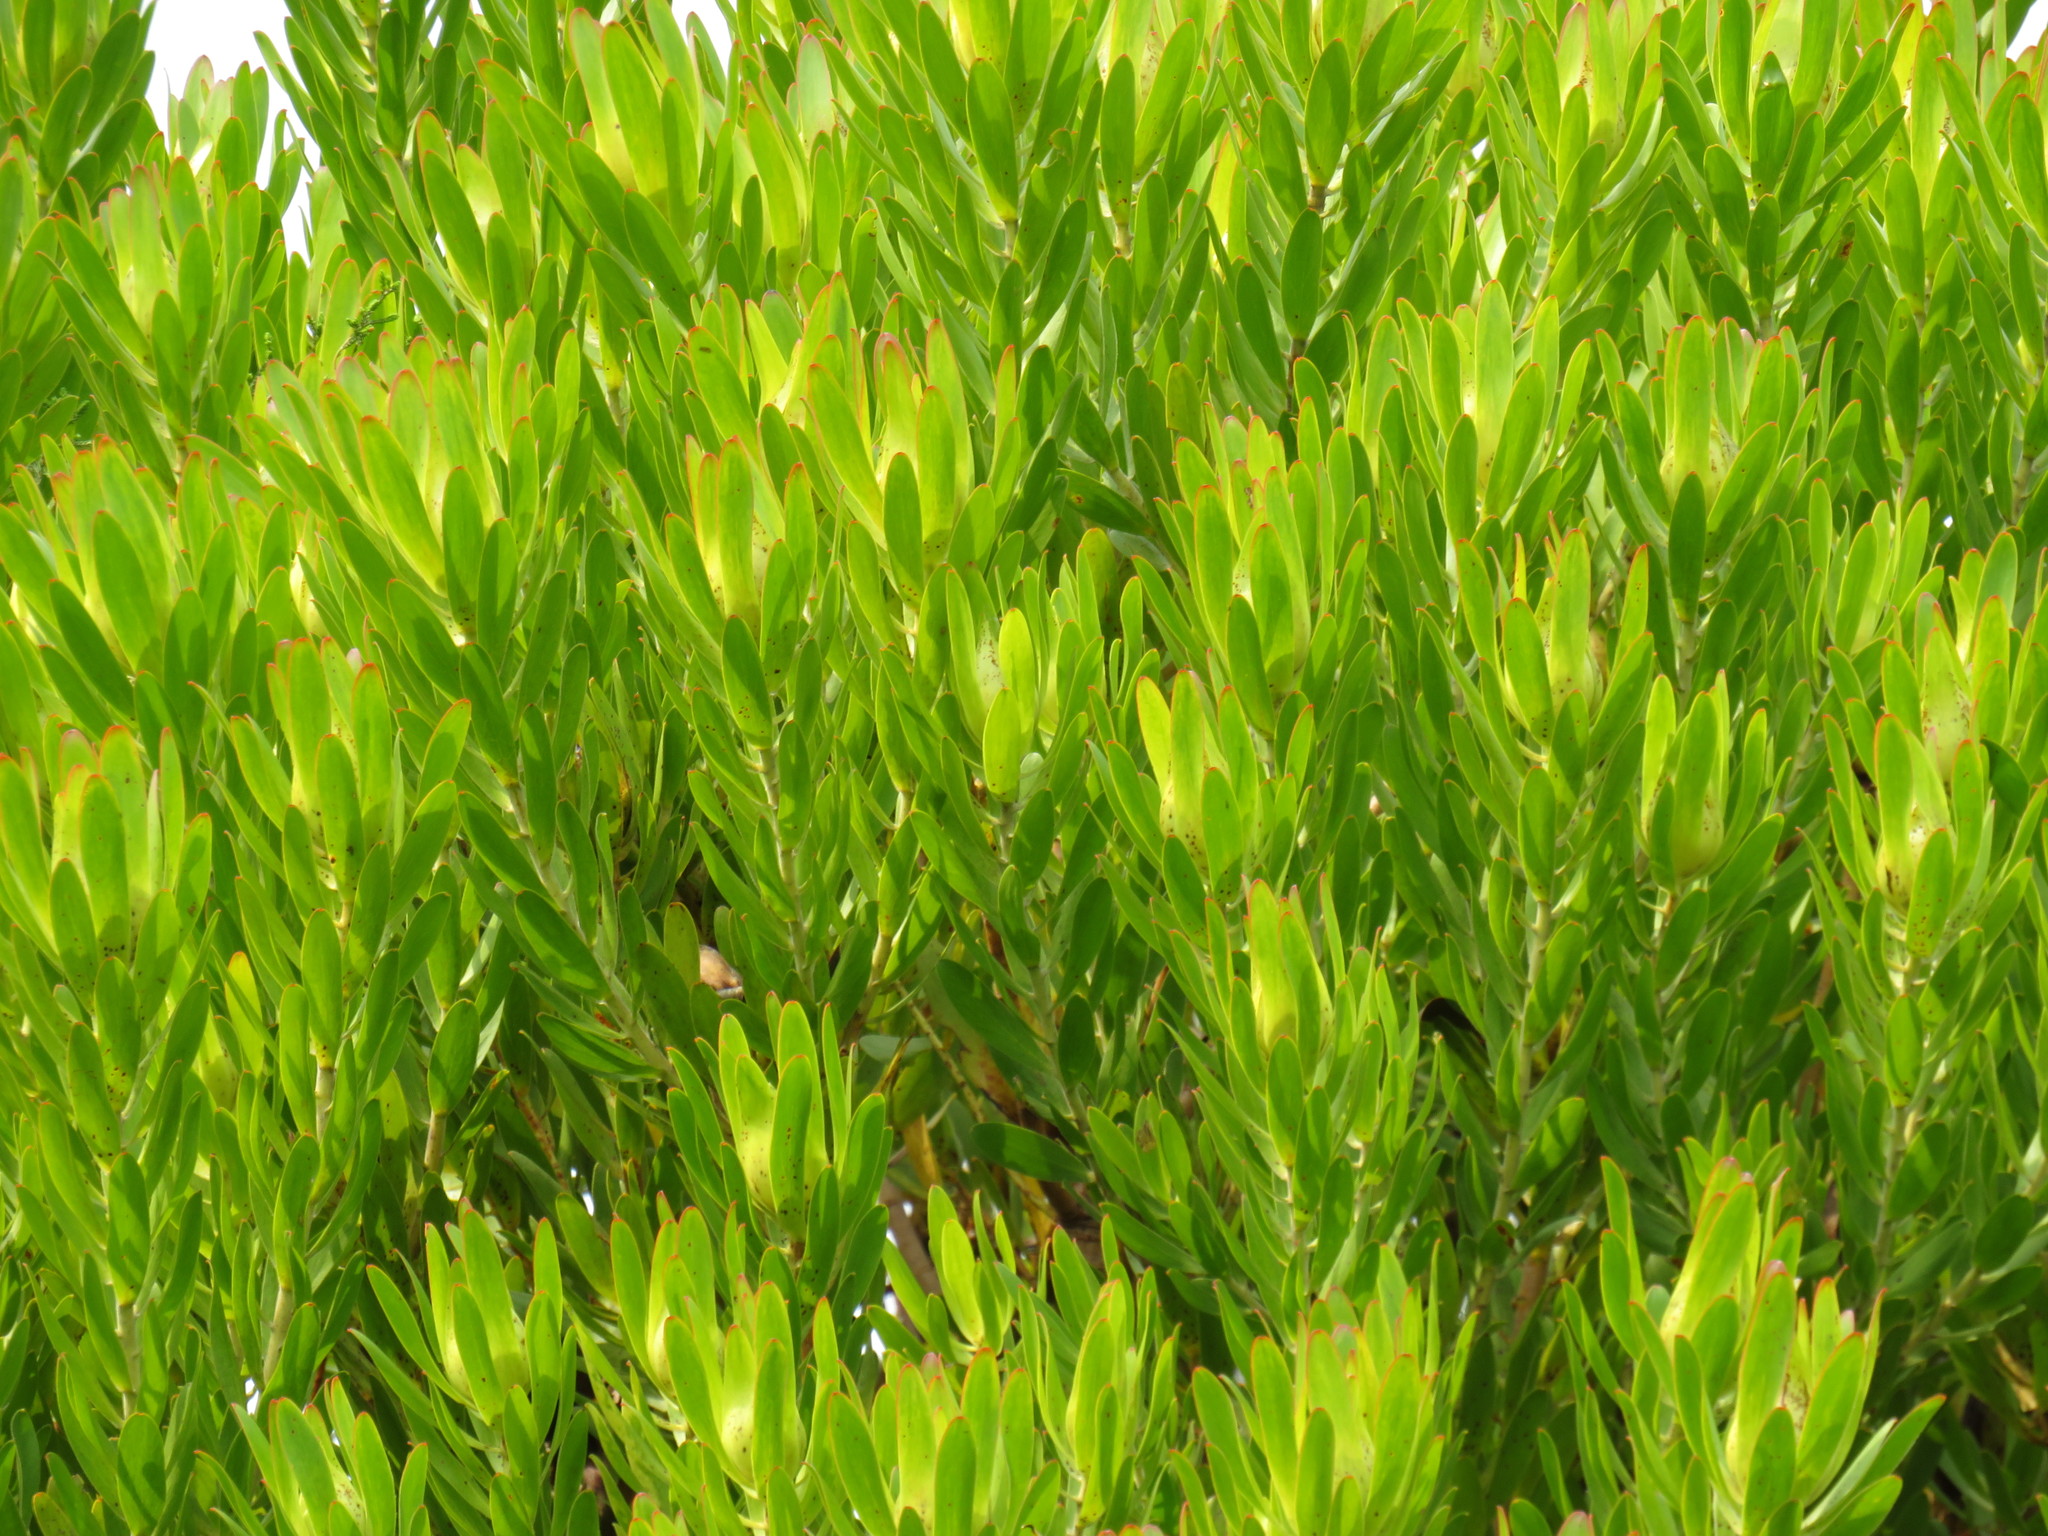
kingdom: Plantae
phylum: Tracheophyta
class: Magnoliopsida
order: Proteales
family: Proteaceae
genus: Leucadendron
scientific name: Leucadendron laureolum
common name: Golden sunshinebush
